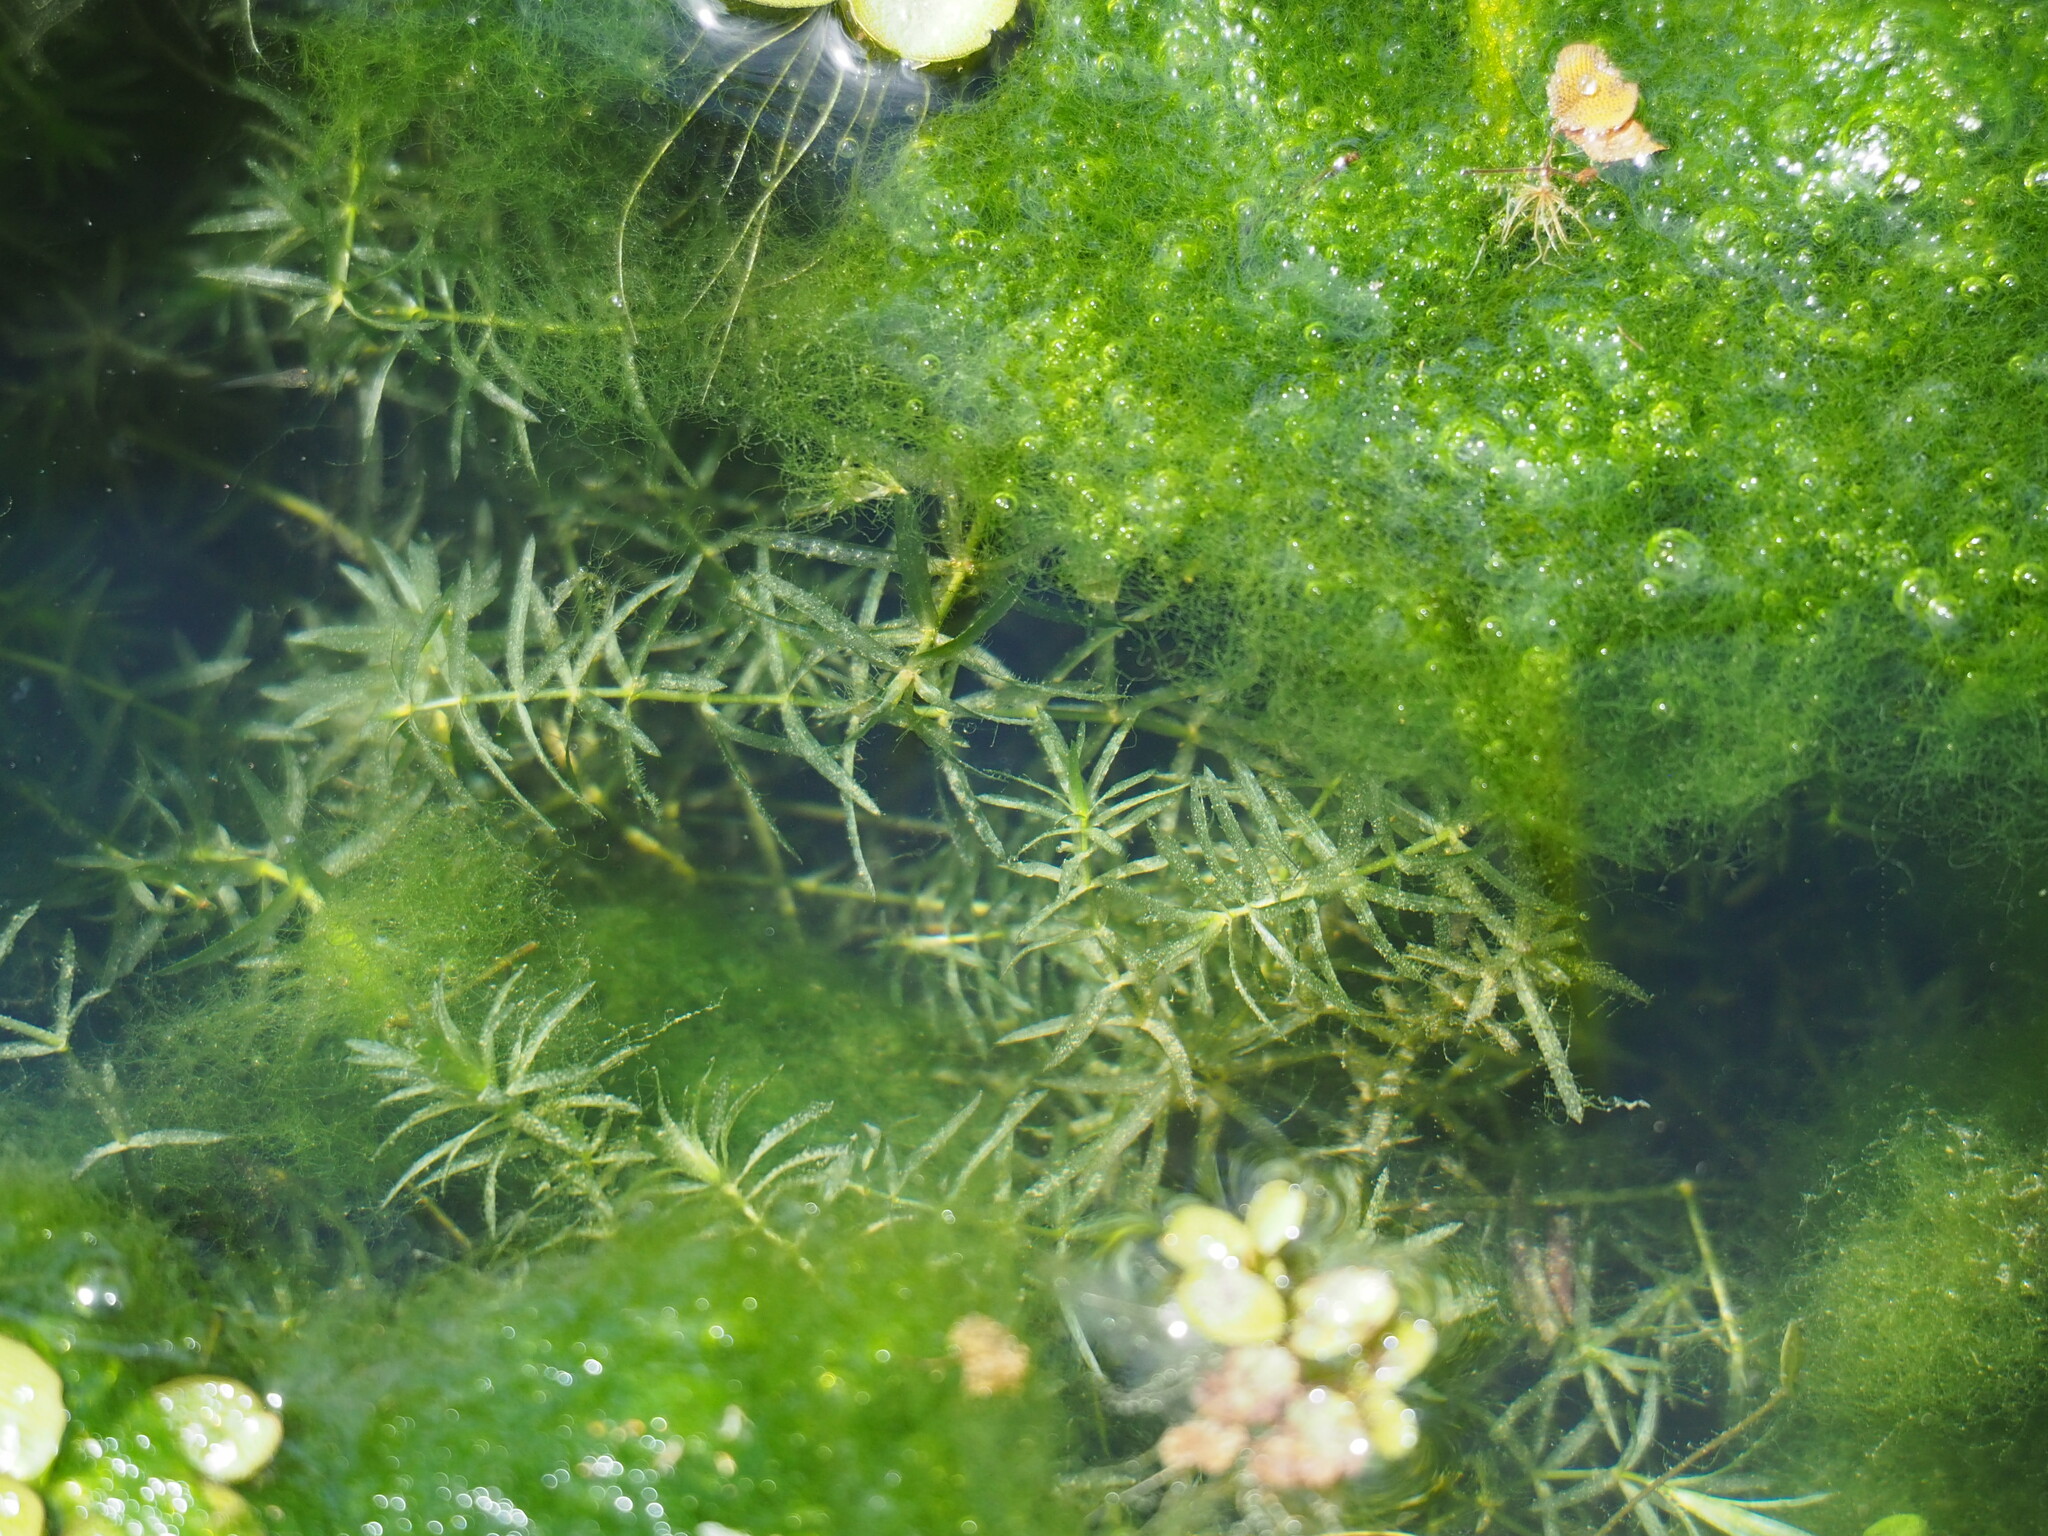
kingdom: Plantae
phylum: Tracheophyta
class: Liliopsida
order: Alismatales
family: Hydrocharitaceae
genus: Hydrilla
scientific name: Hydrilla verticillata
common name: Florida-elodea
